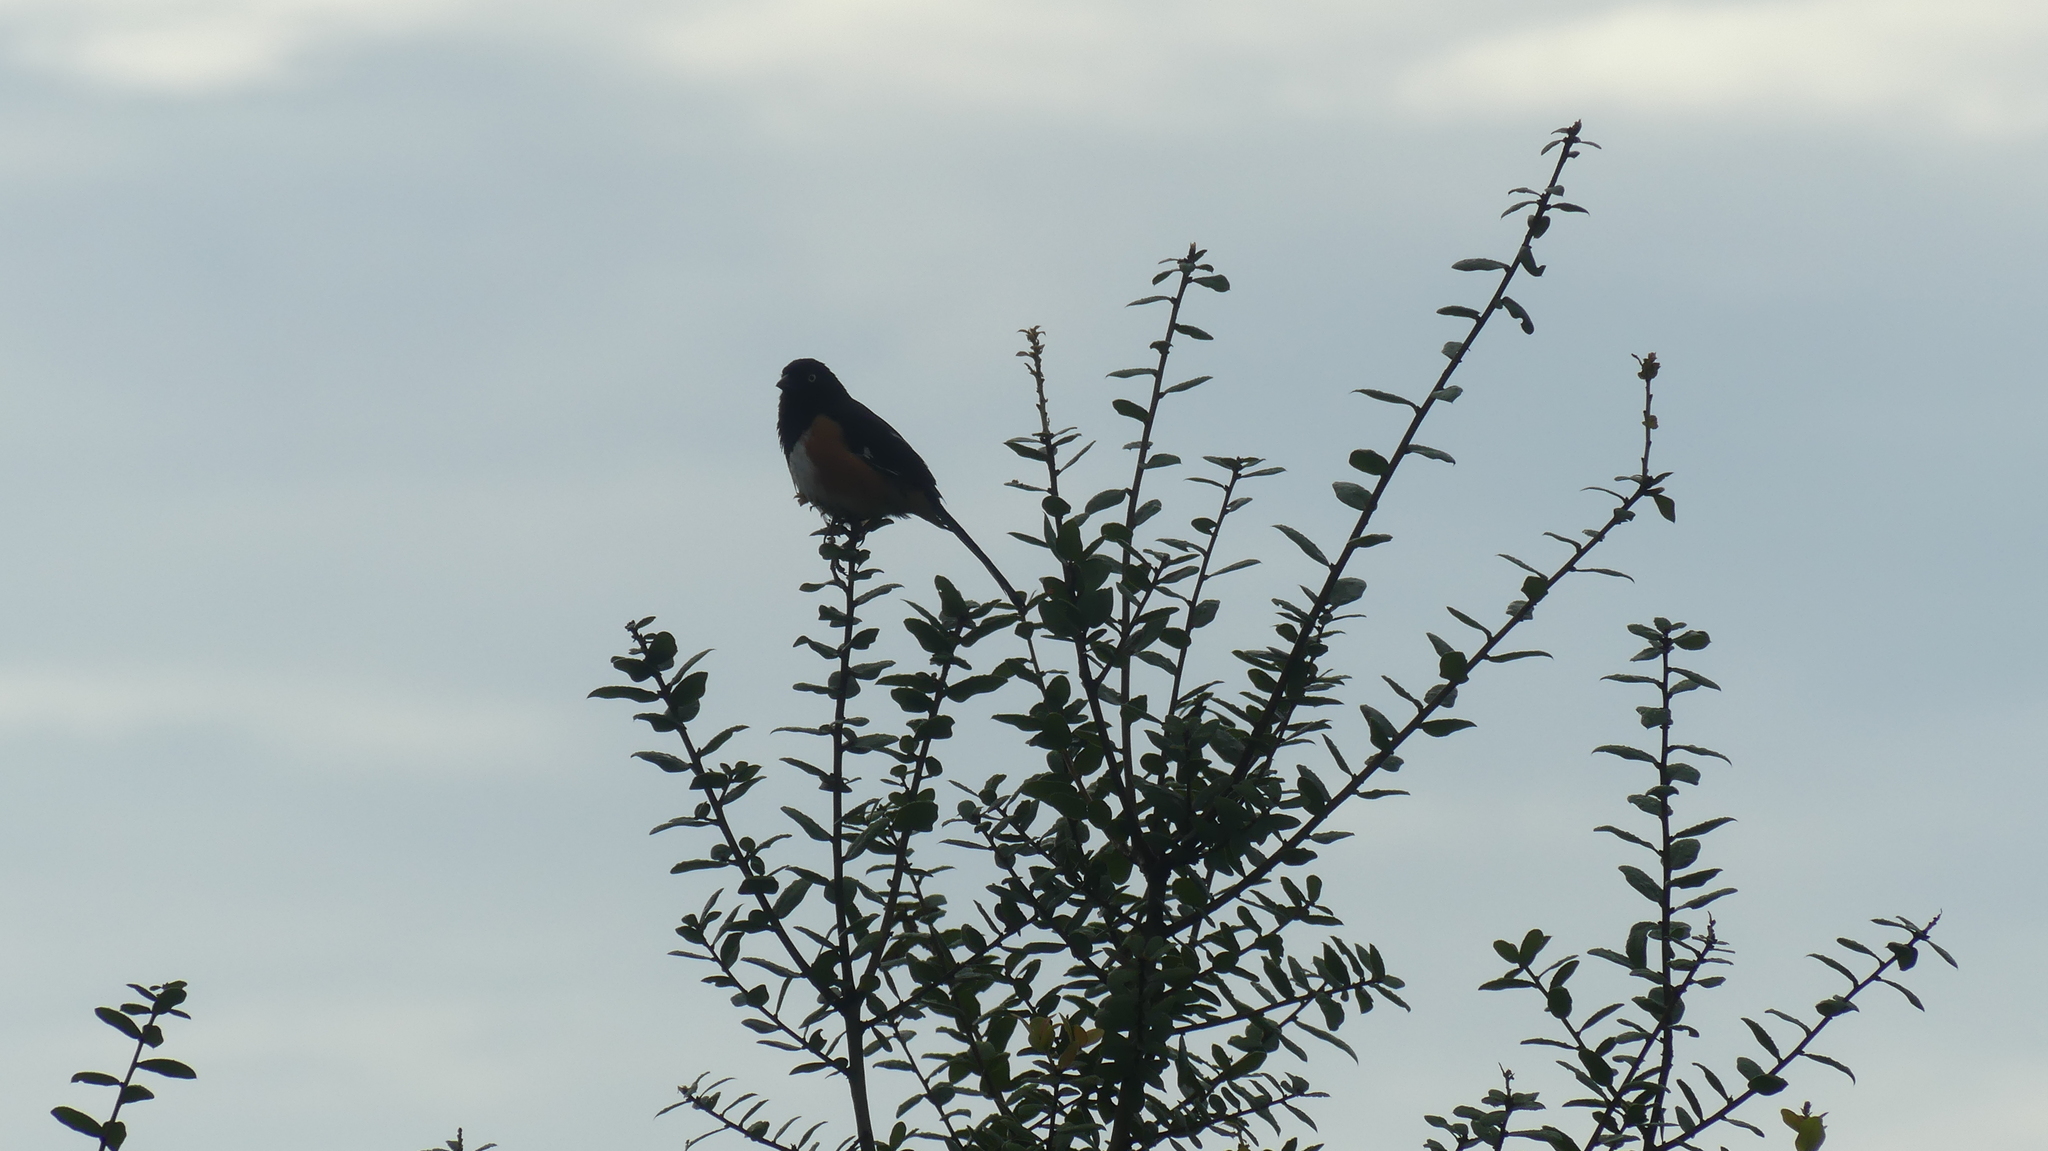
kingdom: Animalia
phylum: Chordata
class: Aves
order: Passeriformes
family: Passerellidae
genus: Pipilo
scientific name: Pipilo erythrophthalmus
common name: Eastern towhee
